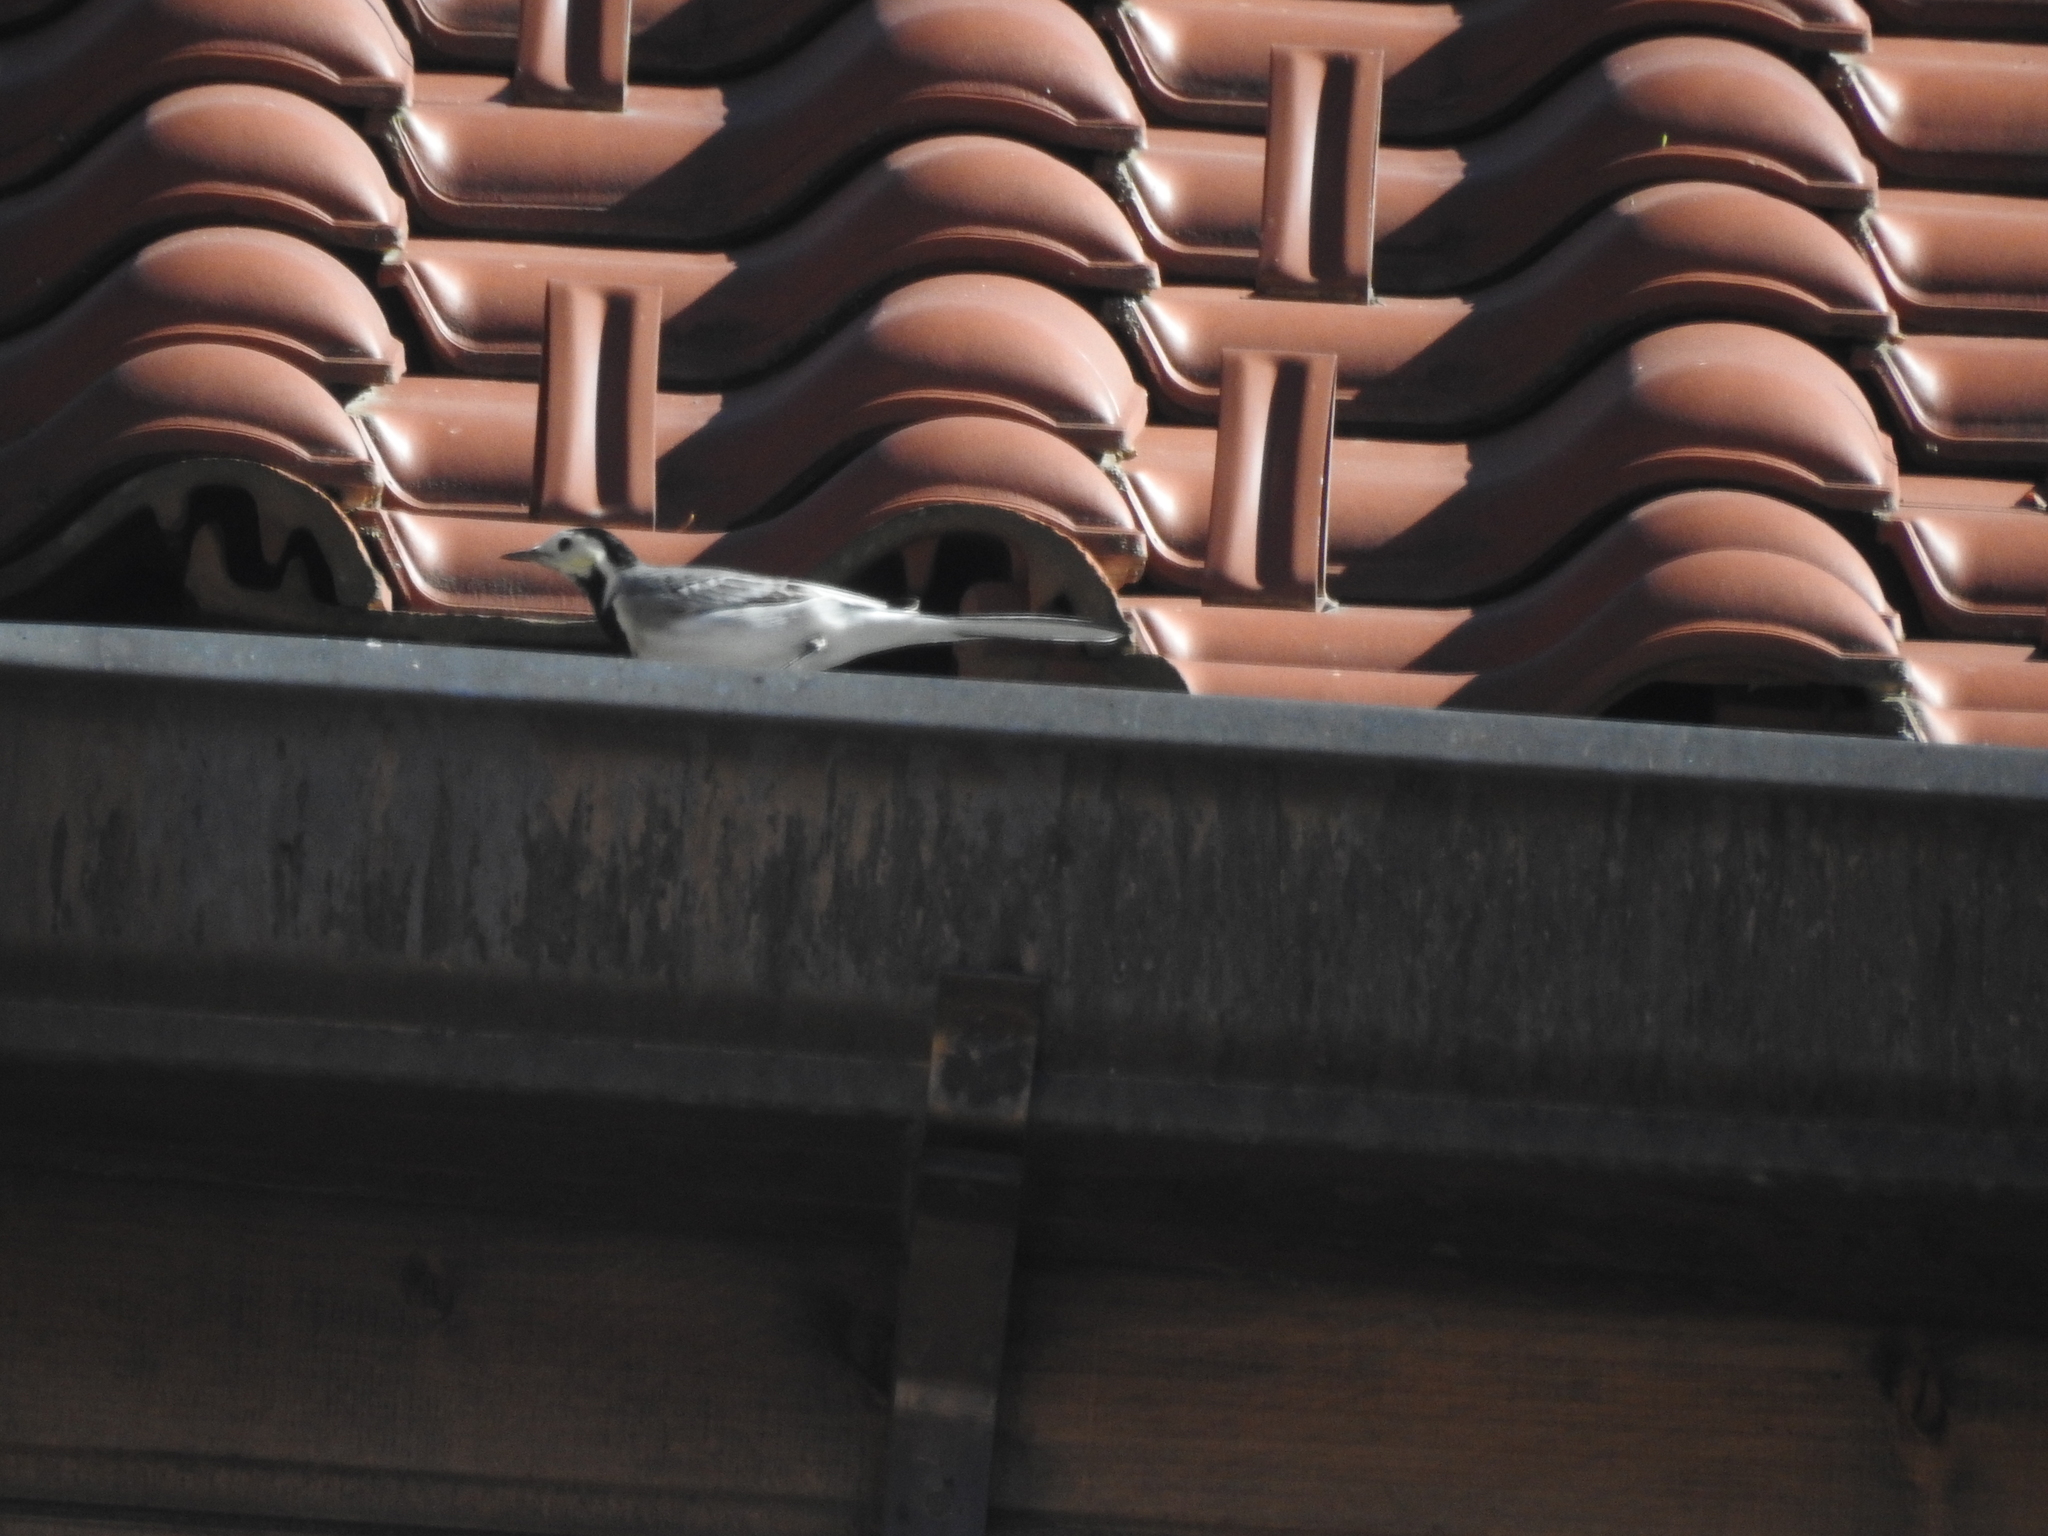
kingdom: Animalia
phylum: Chordata
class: Aves
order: Passeriformes
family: Motacillidae
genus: Motacilla
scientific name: Motacilla alba
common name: White wagtail
